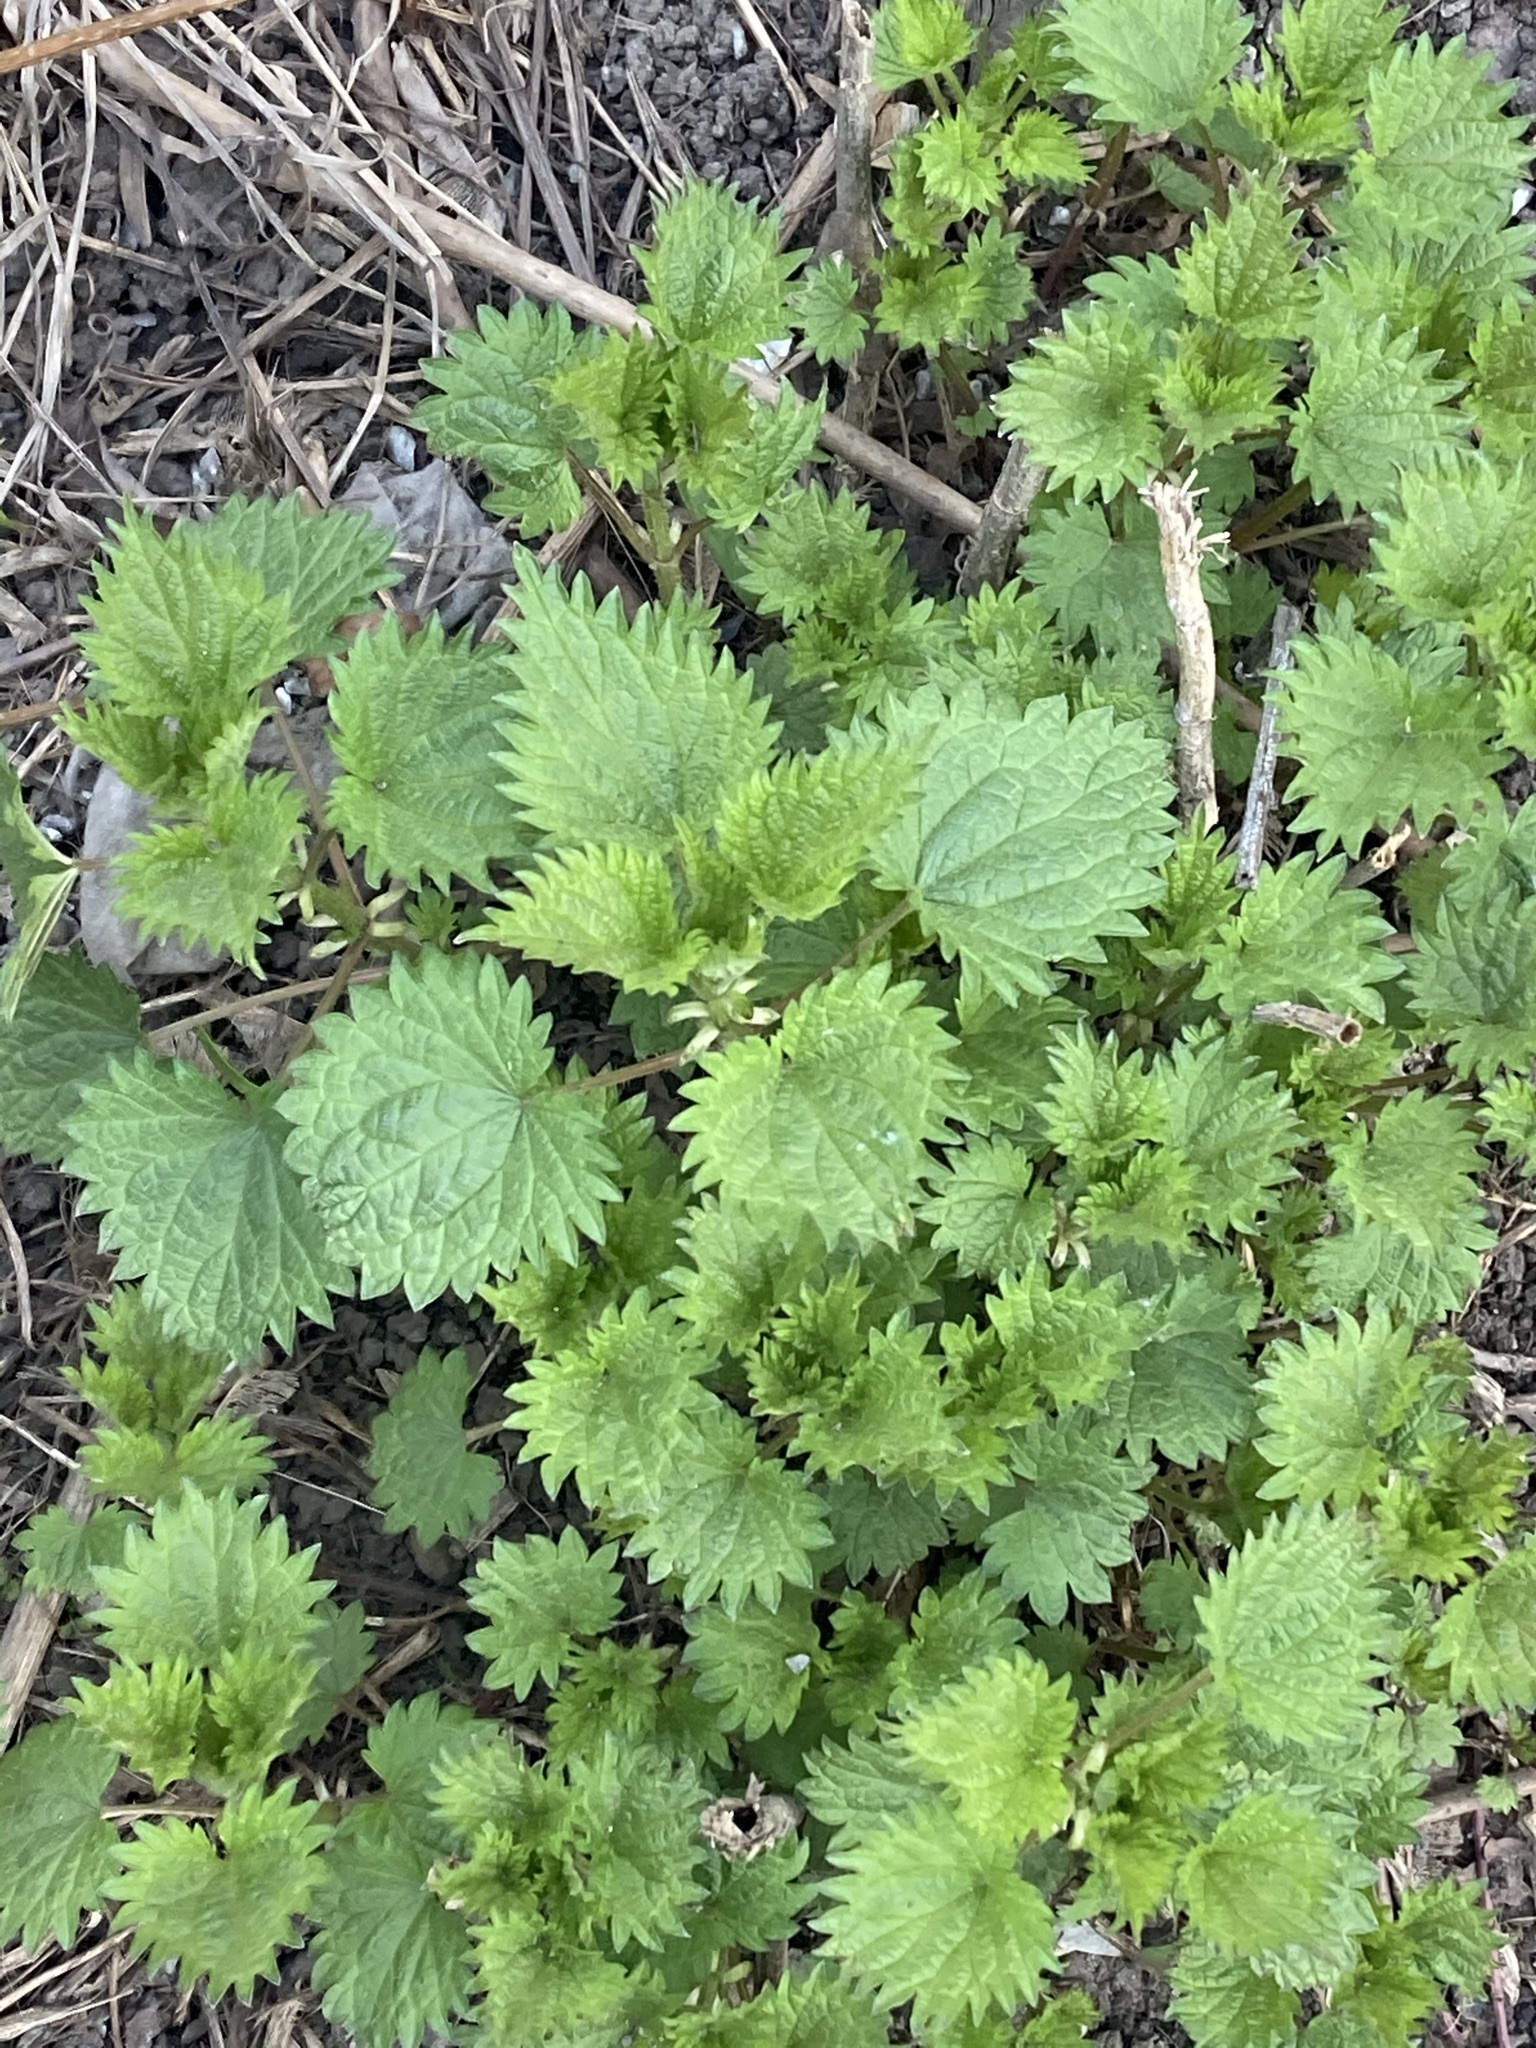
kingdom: Plantae
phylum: Tracheophyta
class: Magnoliopsida
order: Rosales
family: Urticaceae
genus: Urtica
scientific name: Urtica dioica
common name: Common nettle
